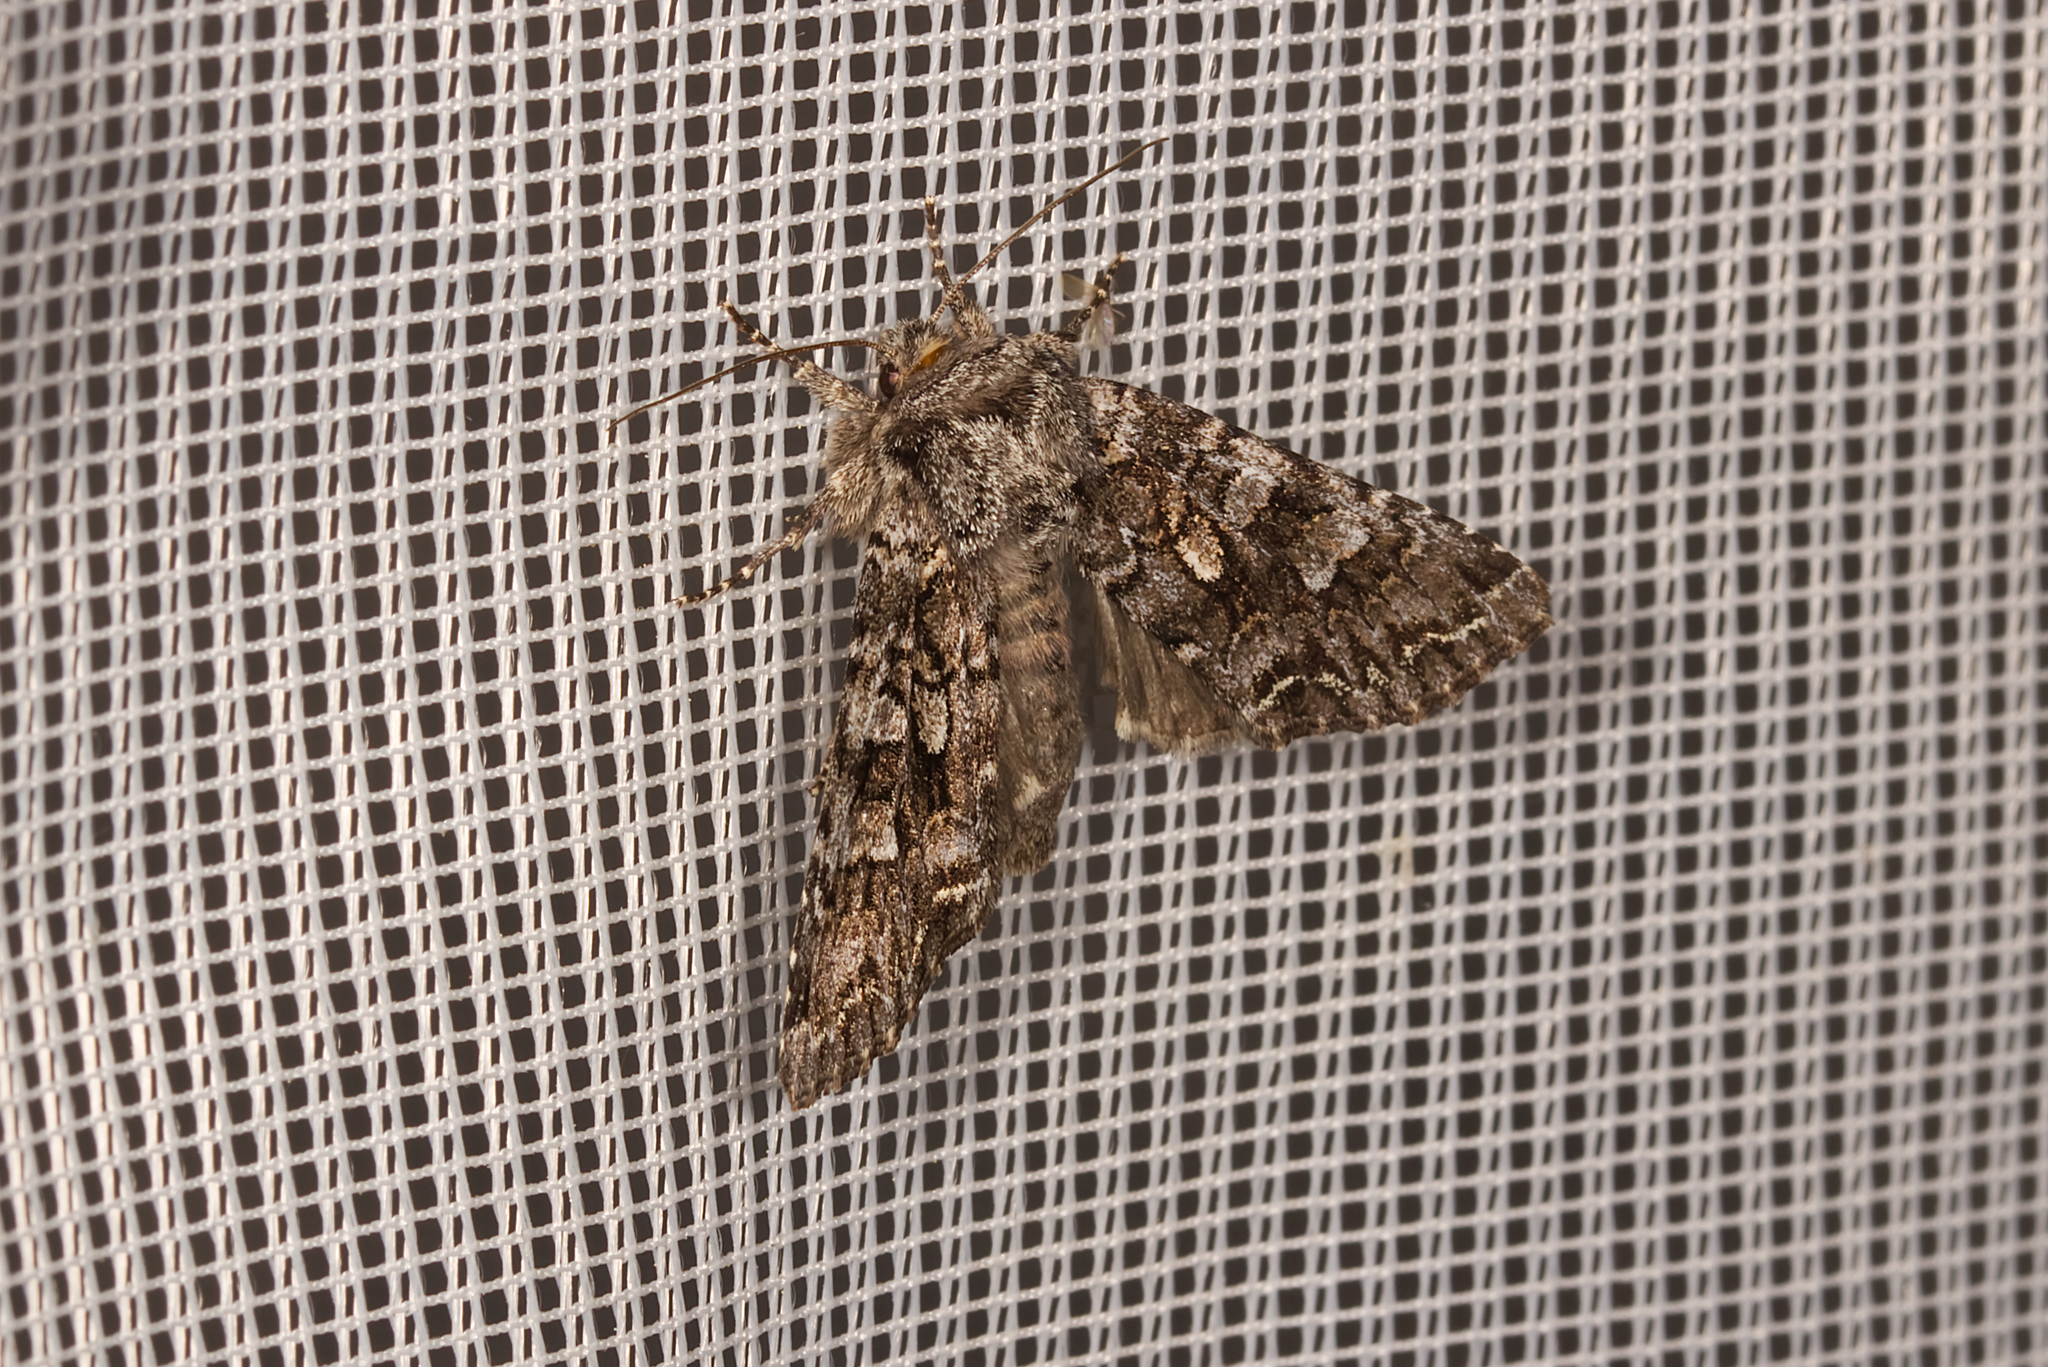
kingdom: Animalia
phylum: Arthropoda
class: Insecta
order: Lepidoptera
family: Noctuidae
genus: Papestra
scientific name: Papestra biren
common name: Glaucous shears
